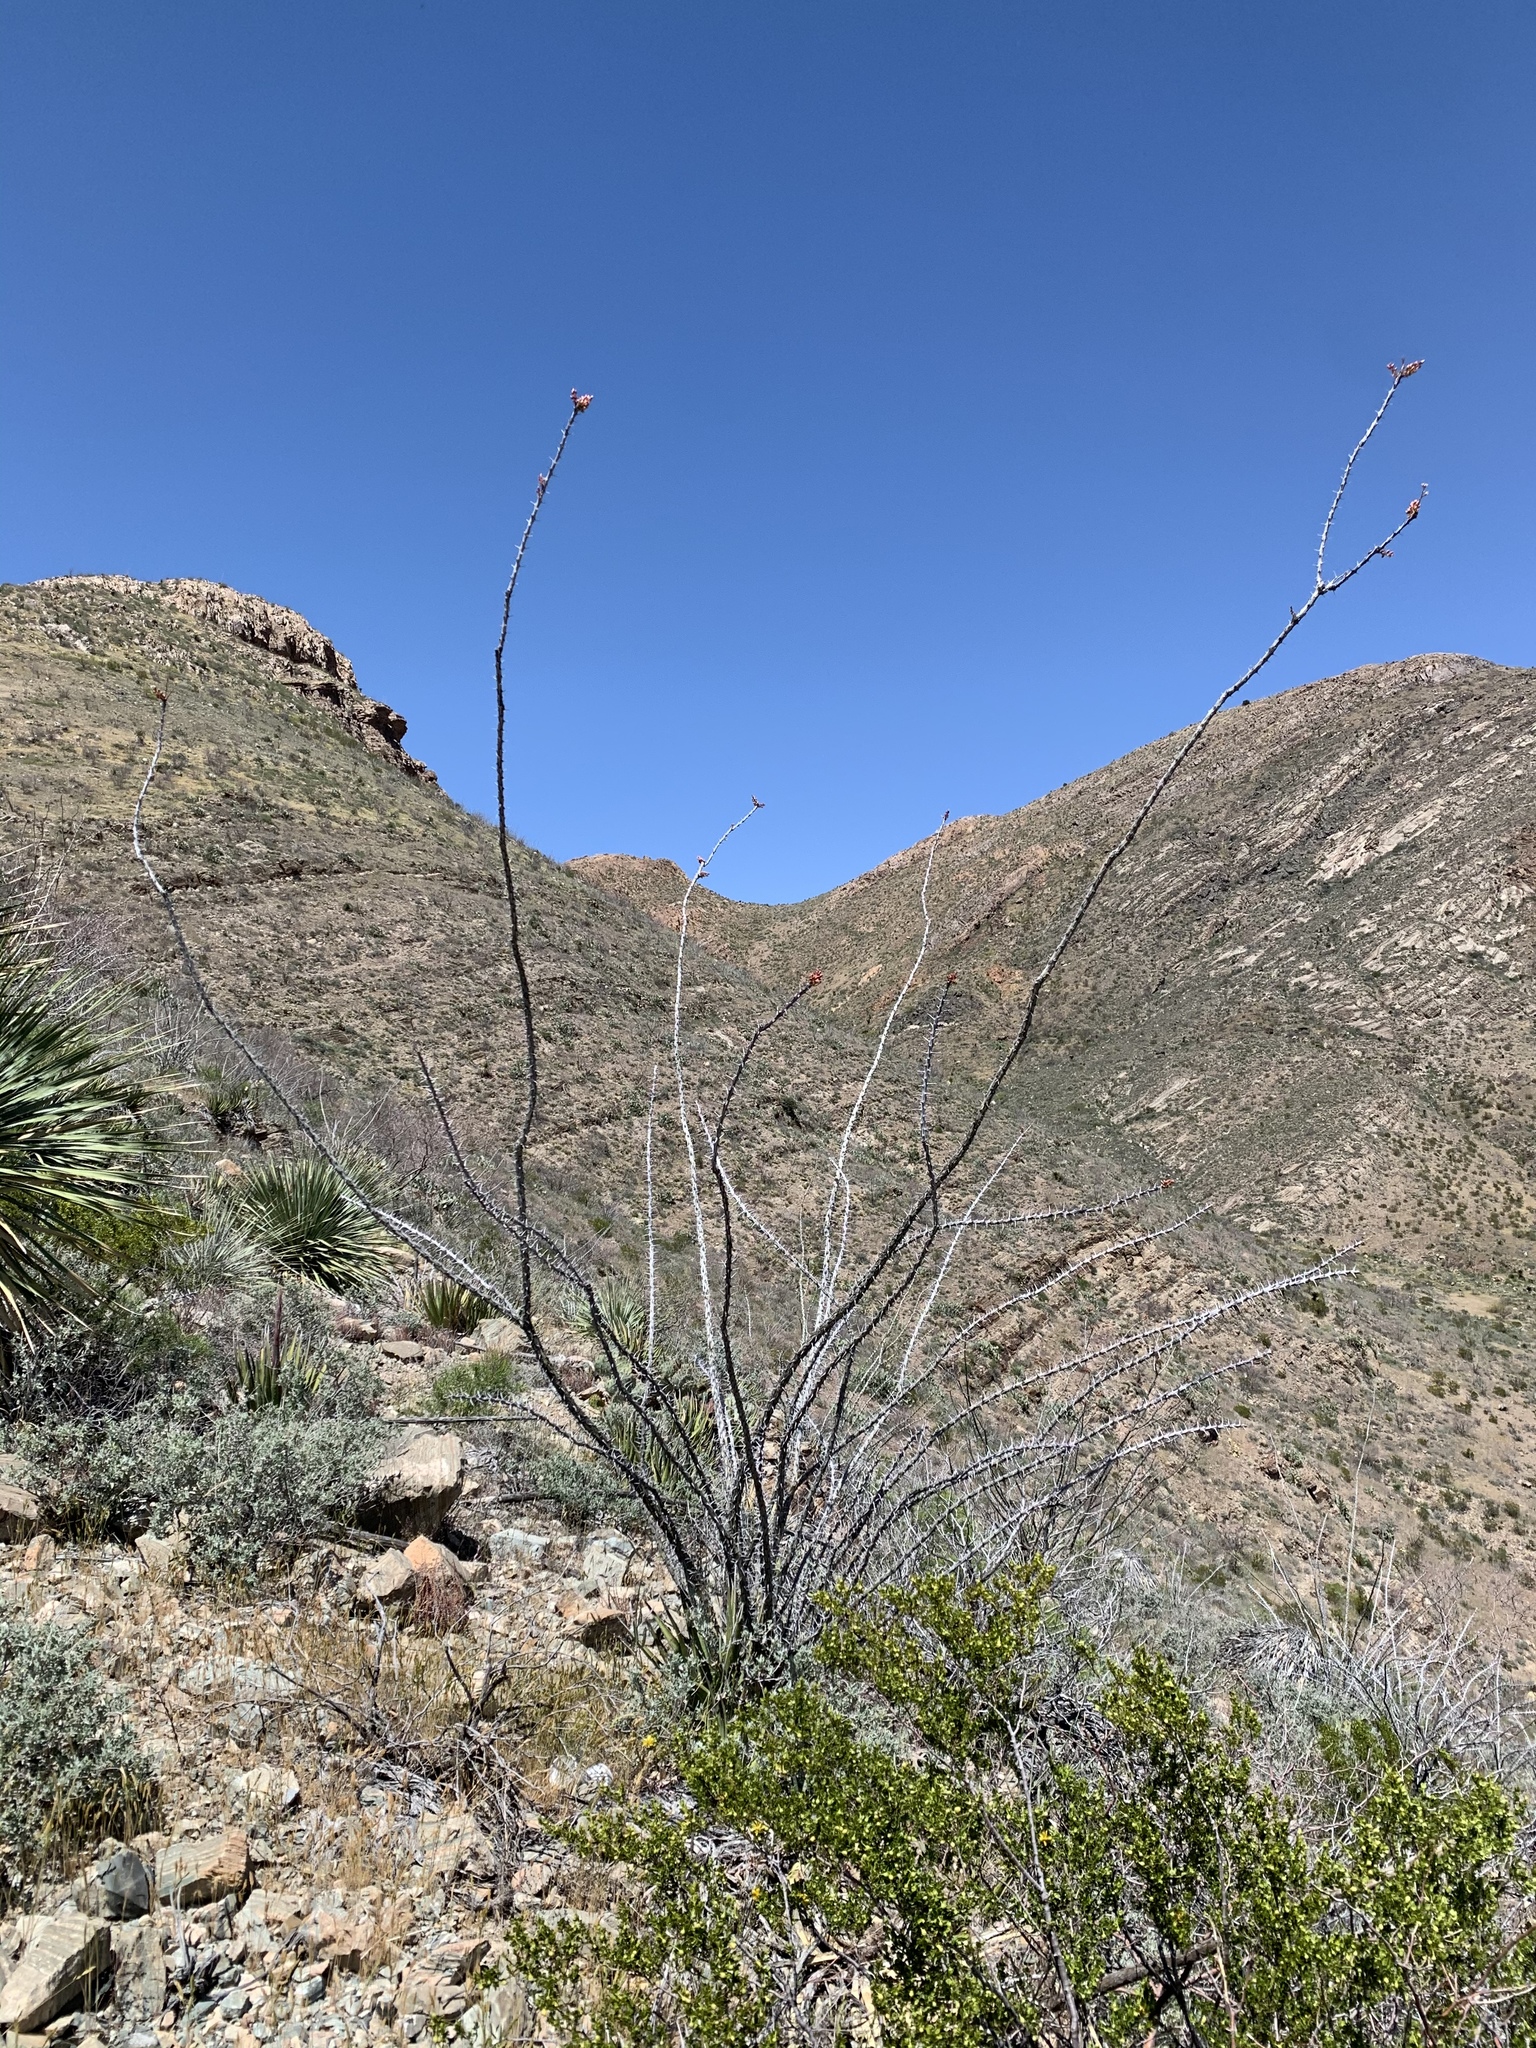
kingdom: Plantae
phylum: Tracheophyta
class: Magnoliopsida
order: Ericales
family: Fouquieriaceae
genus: Fouquieria
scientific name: Fouquieria splendens
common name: Vine-cactus
